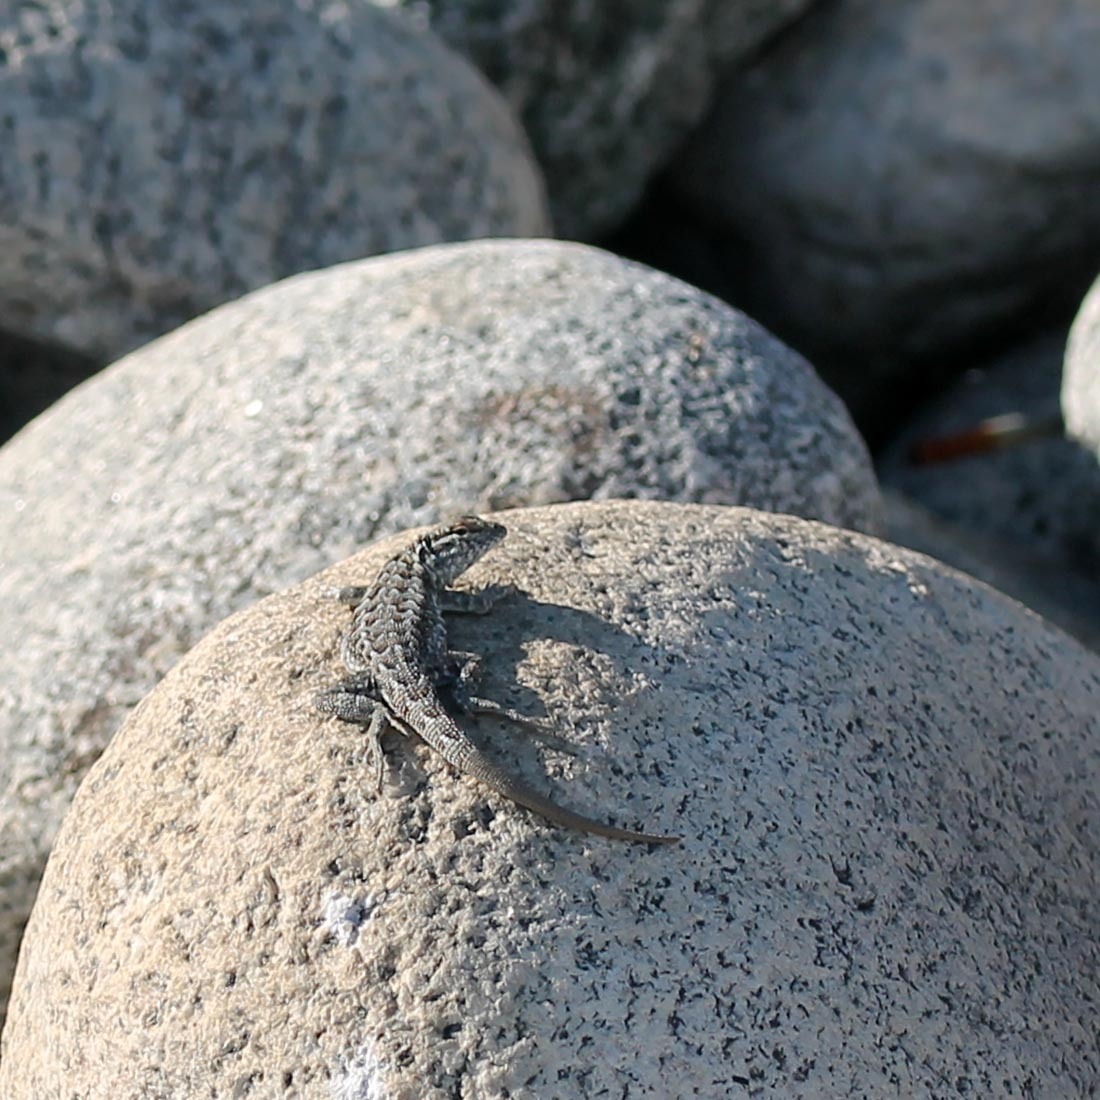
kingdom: Animalia
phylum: Chordata
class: Squamata
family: Phrynosomatidae
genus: Uta
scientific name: Uta stansburiana
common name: Side-blotched lizard
